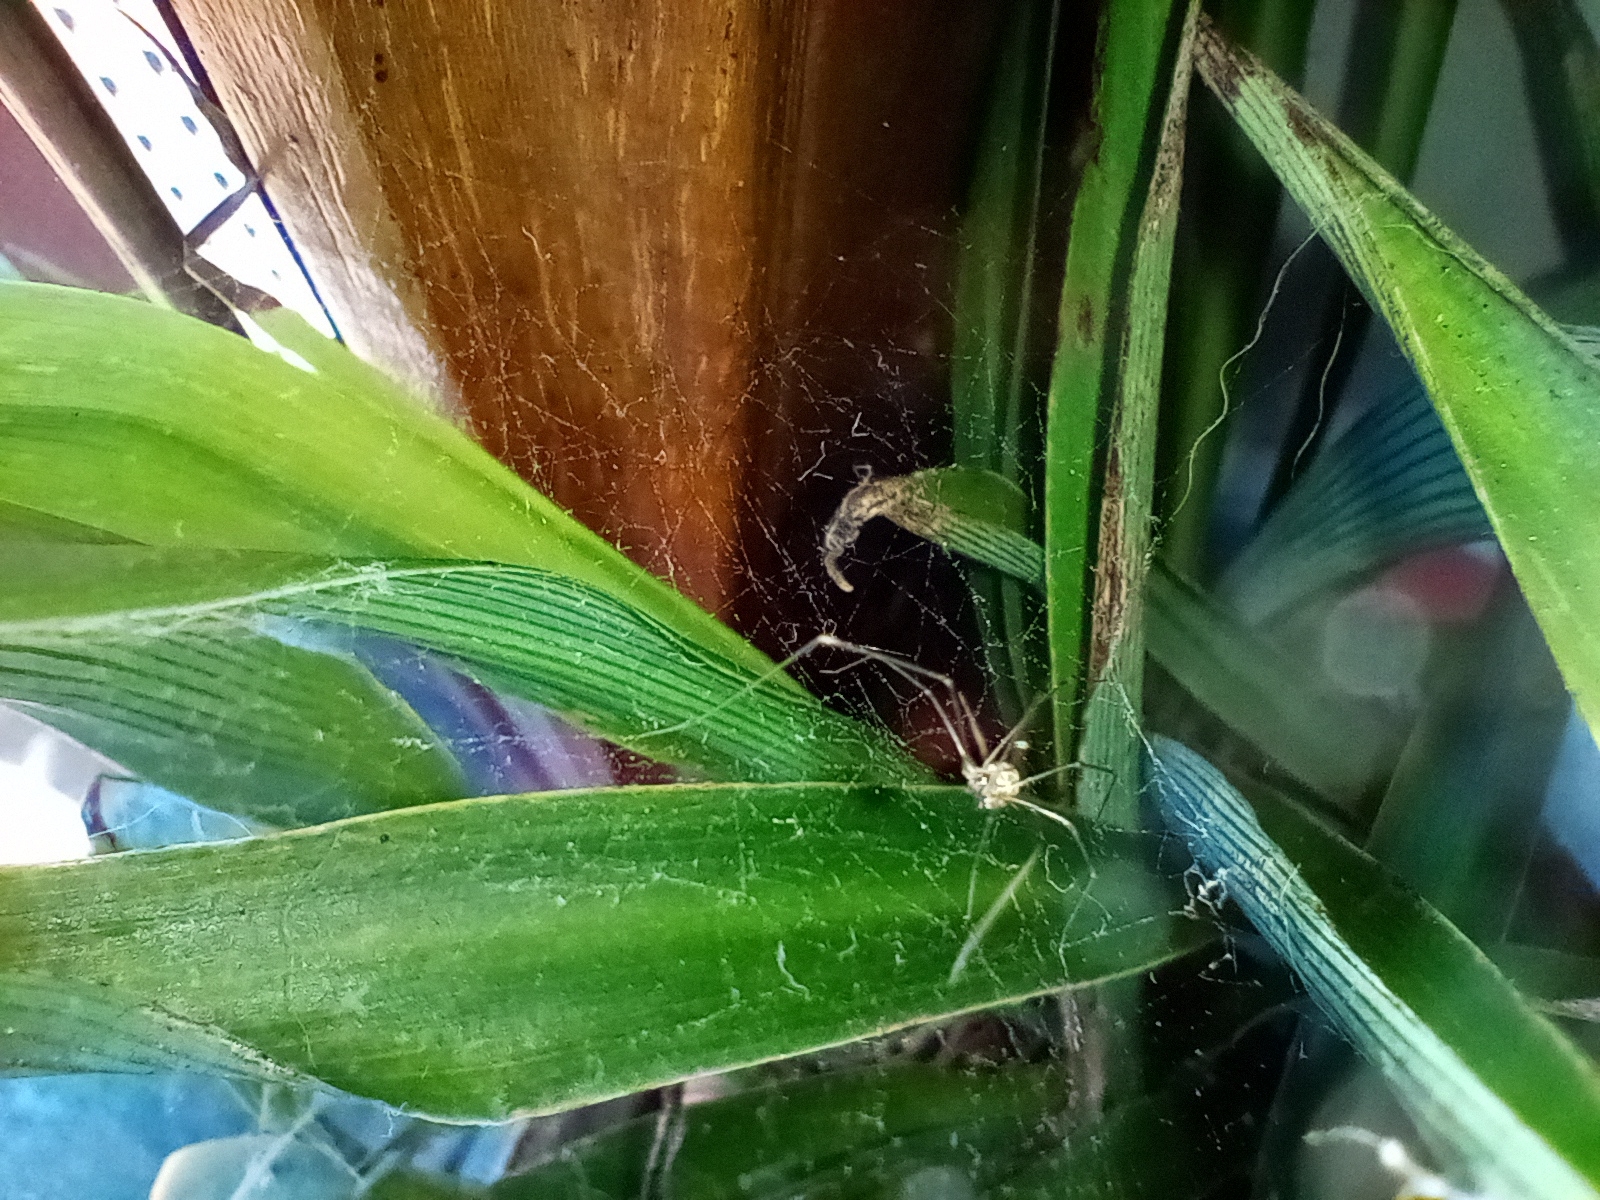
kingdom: Animalia
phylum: Arthropoda
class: Arachnida
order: Araneae
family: Pholcidae
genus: Holocnemus
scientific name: Holocnemus pluchei
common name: Marbled cellar spider
